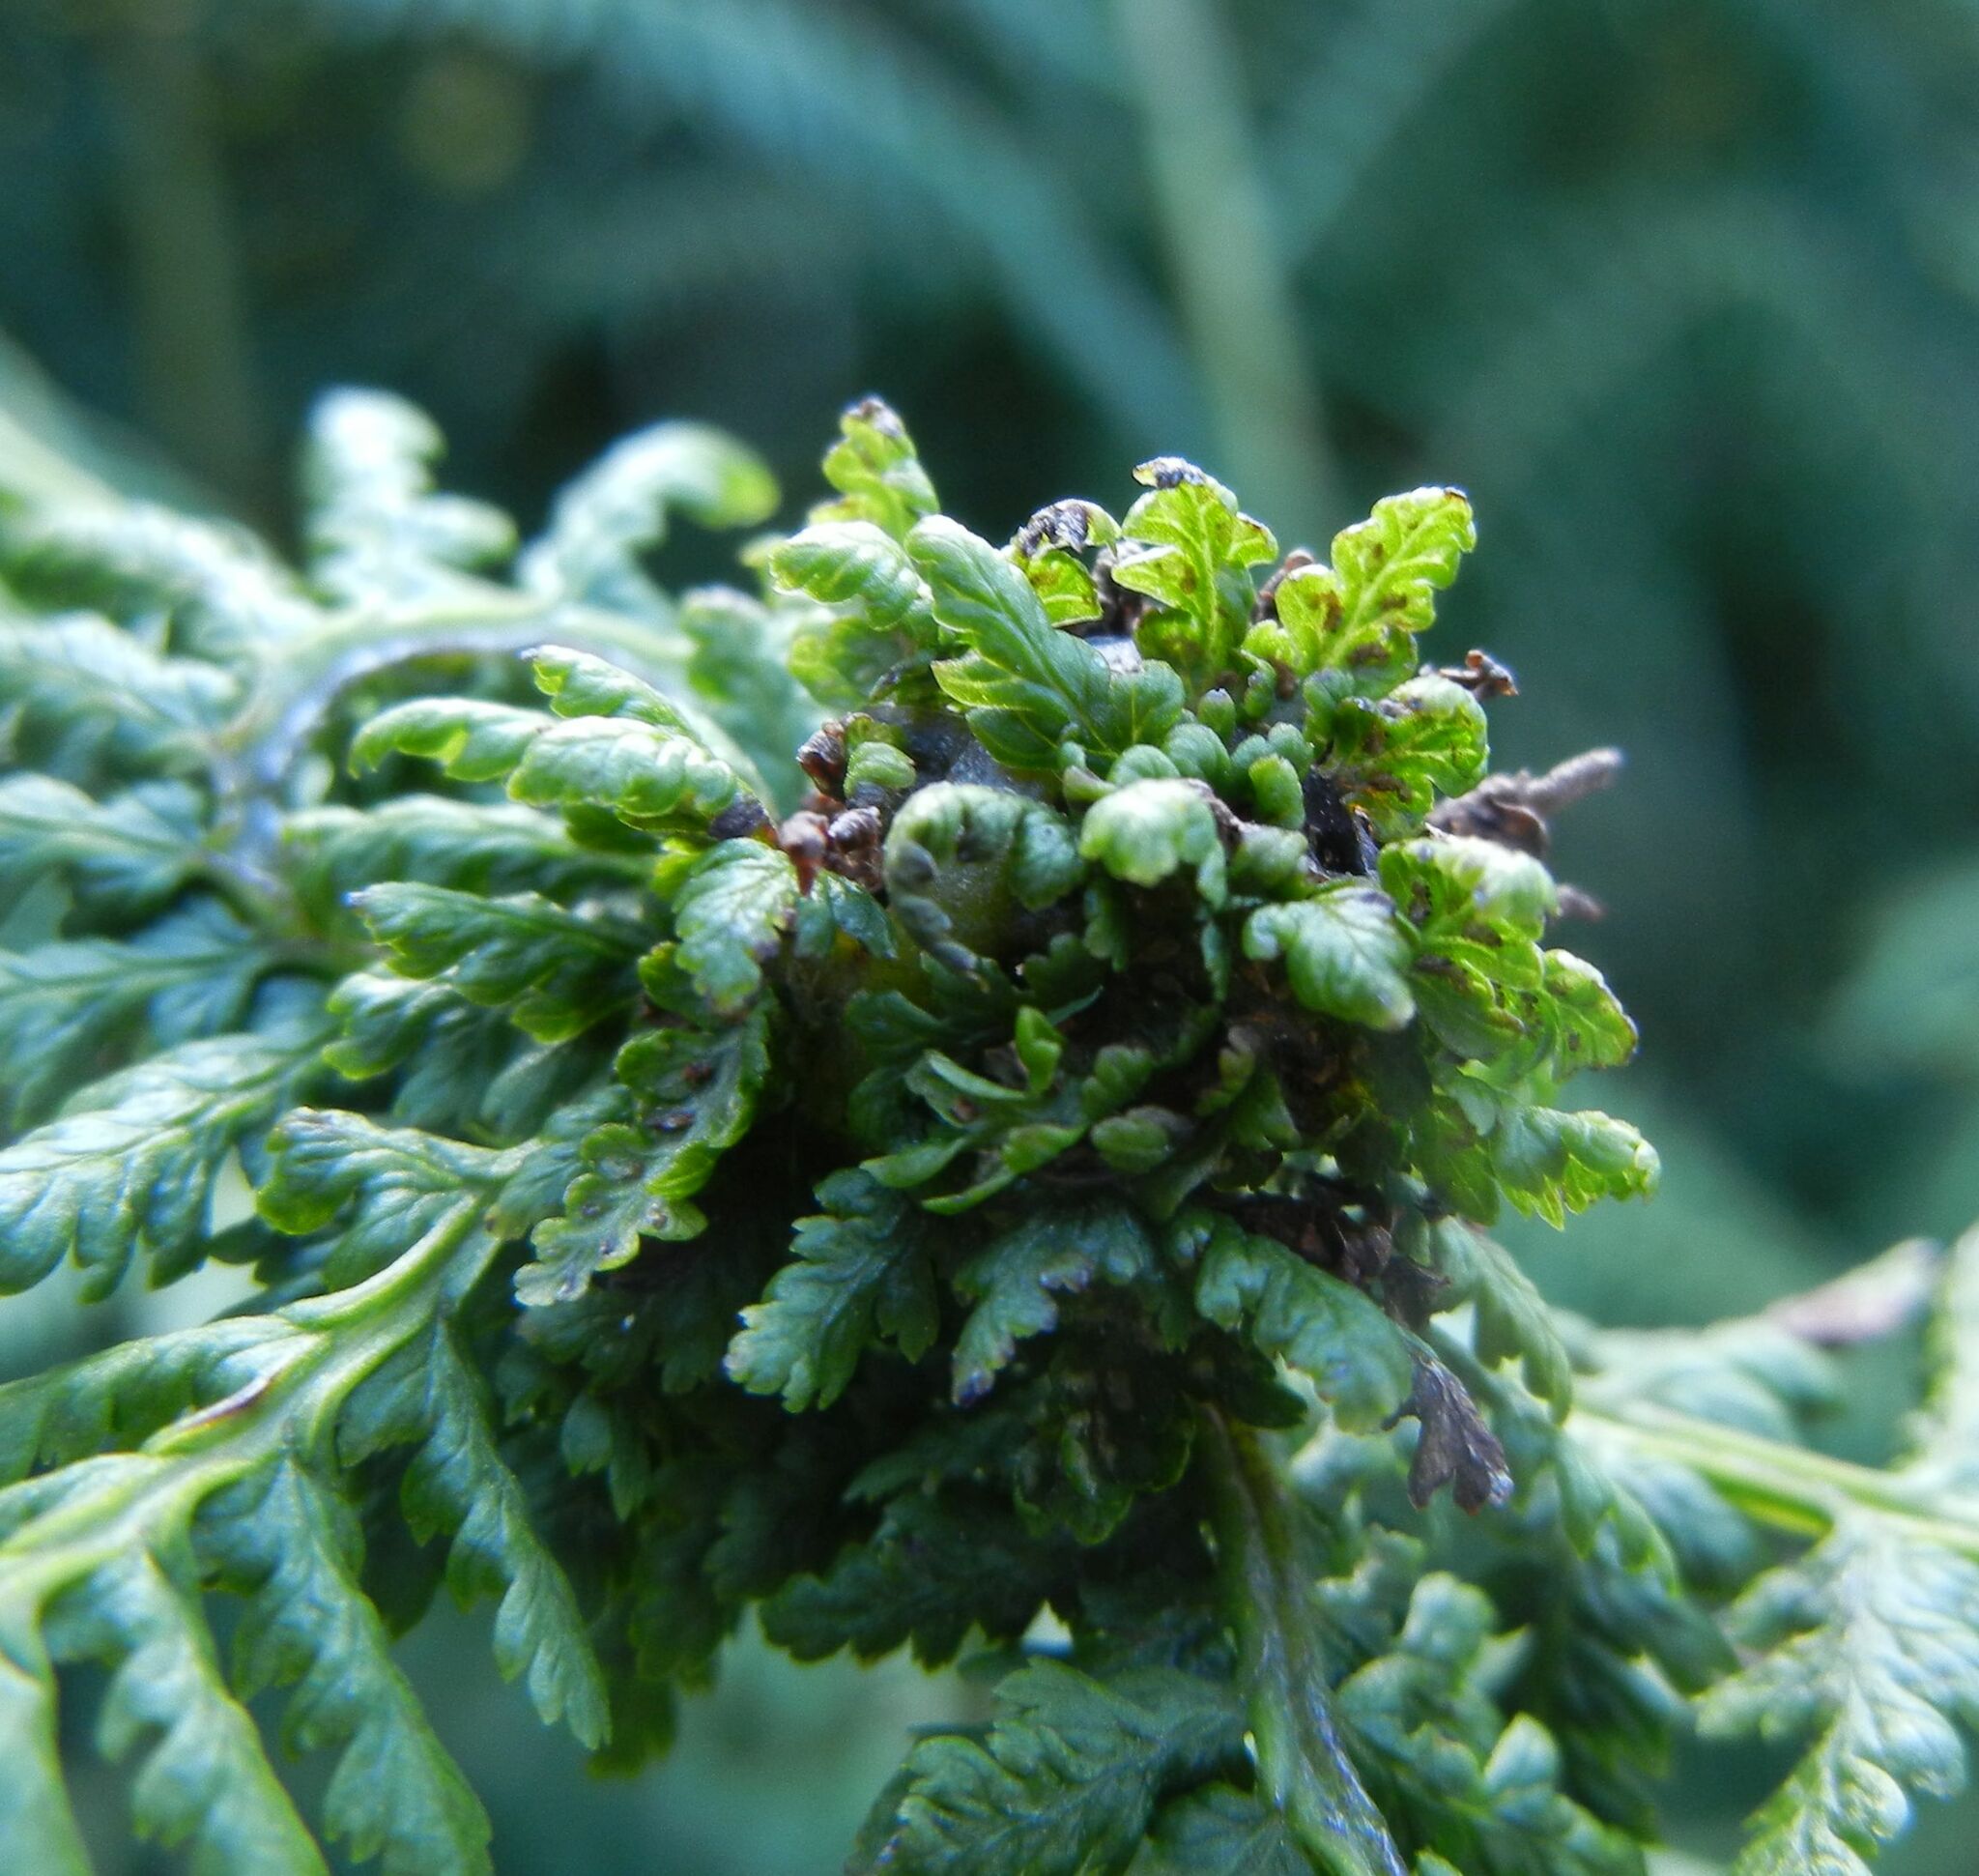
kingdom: Animalia
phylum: Arthropoda
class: Insecta
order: Diptera
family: Anthomyiidae
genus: Chirosia
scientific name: Chirosia betuleti
